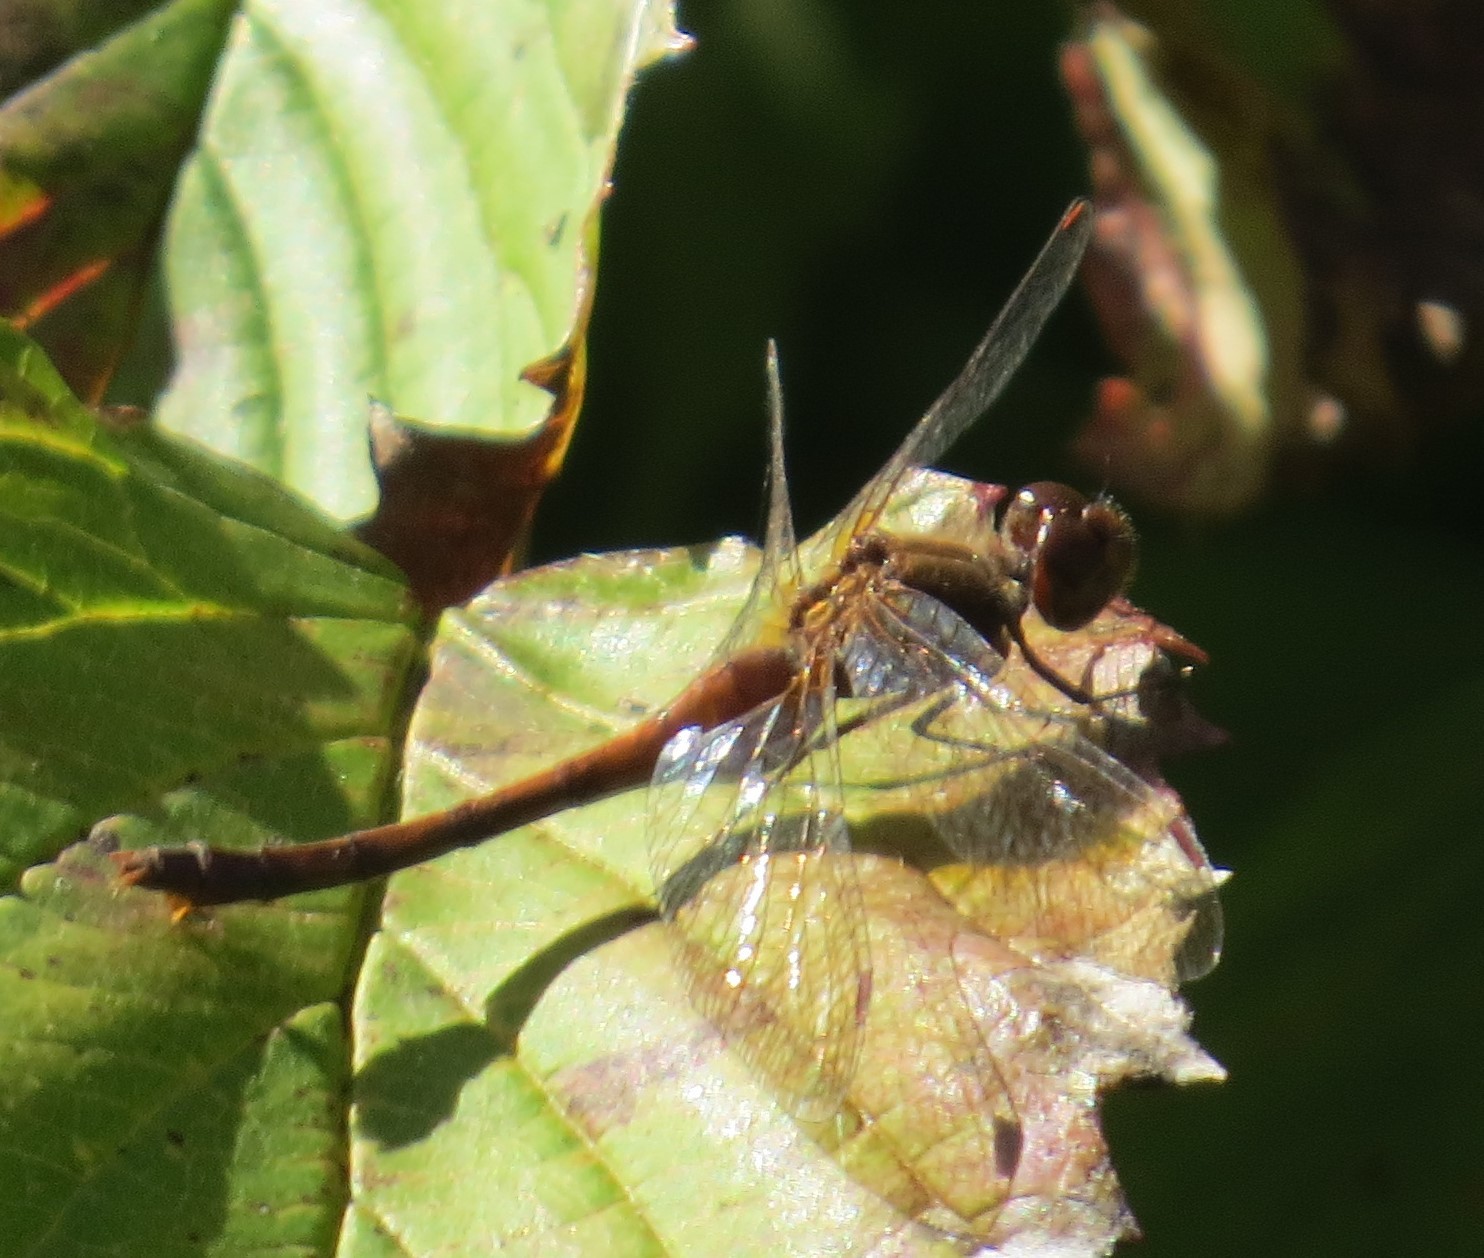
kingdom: Animalia
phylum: Arthropoda
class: Insecta
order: Odonata
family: Libellulidae
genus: Sympetrum
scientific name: Sympetrum vicinum
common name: Autumn meadowhawk
